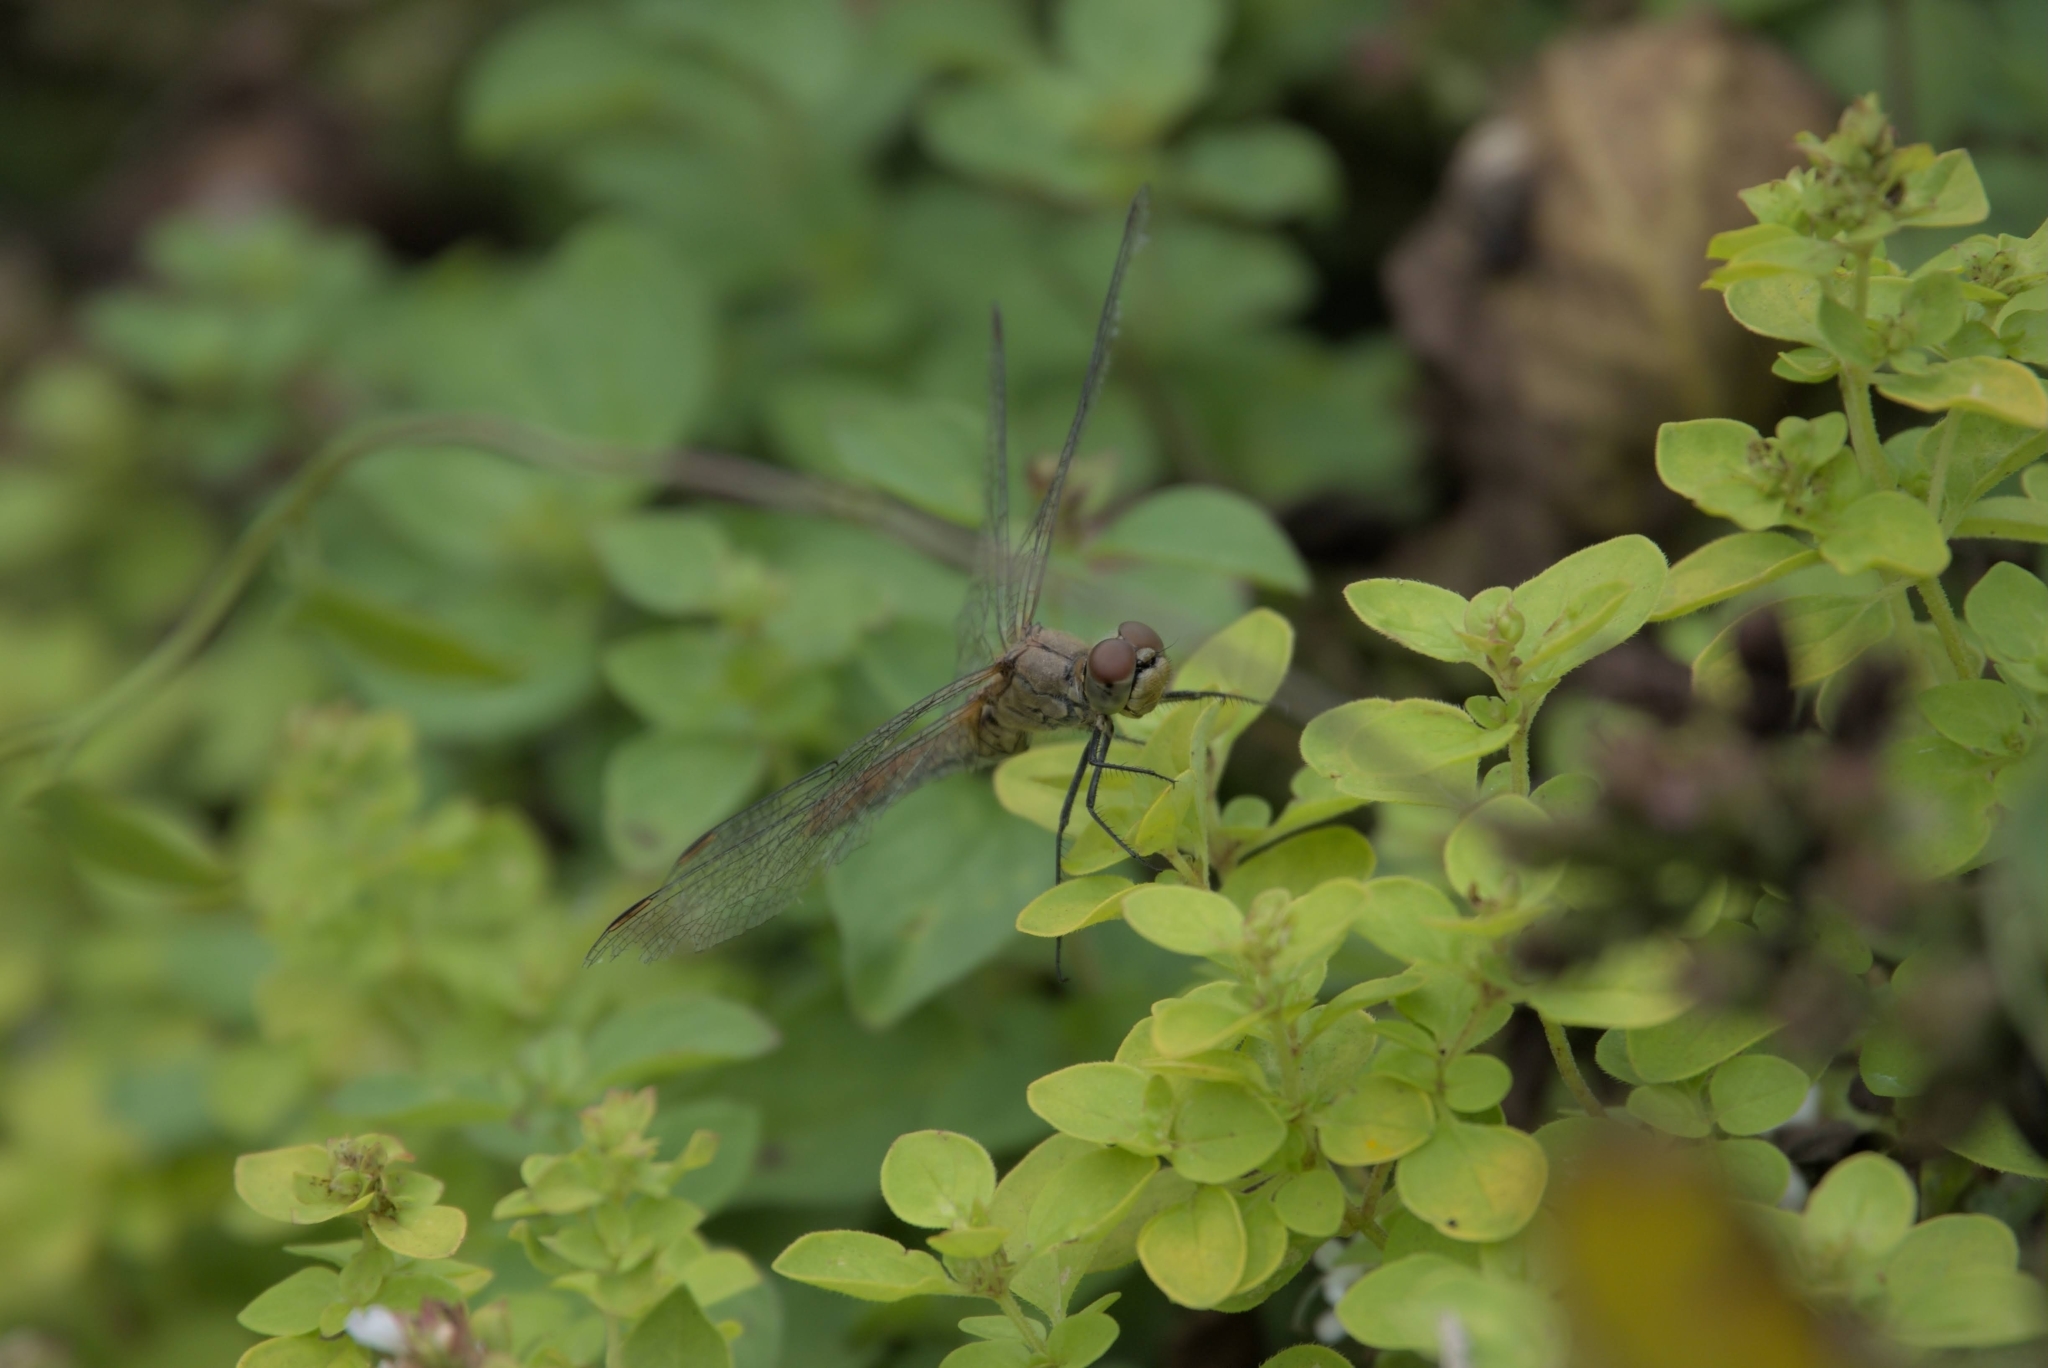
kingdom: Animalia
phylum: Arthropoda
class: Insecta
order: Odonata
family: Libellulidae
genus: Sympetrum
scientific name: Sympetrum sanguineum
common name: Ruddy darter
